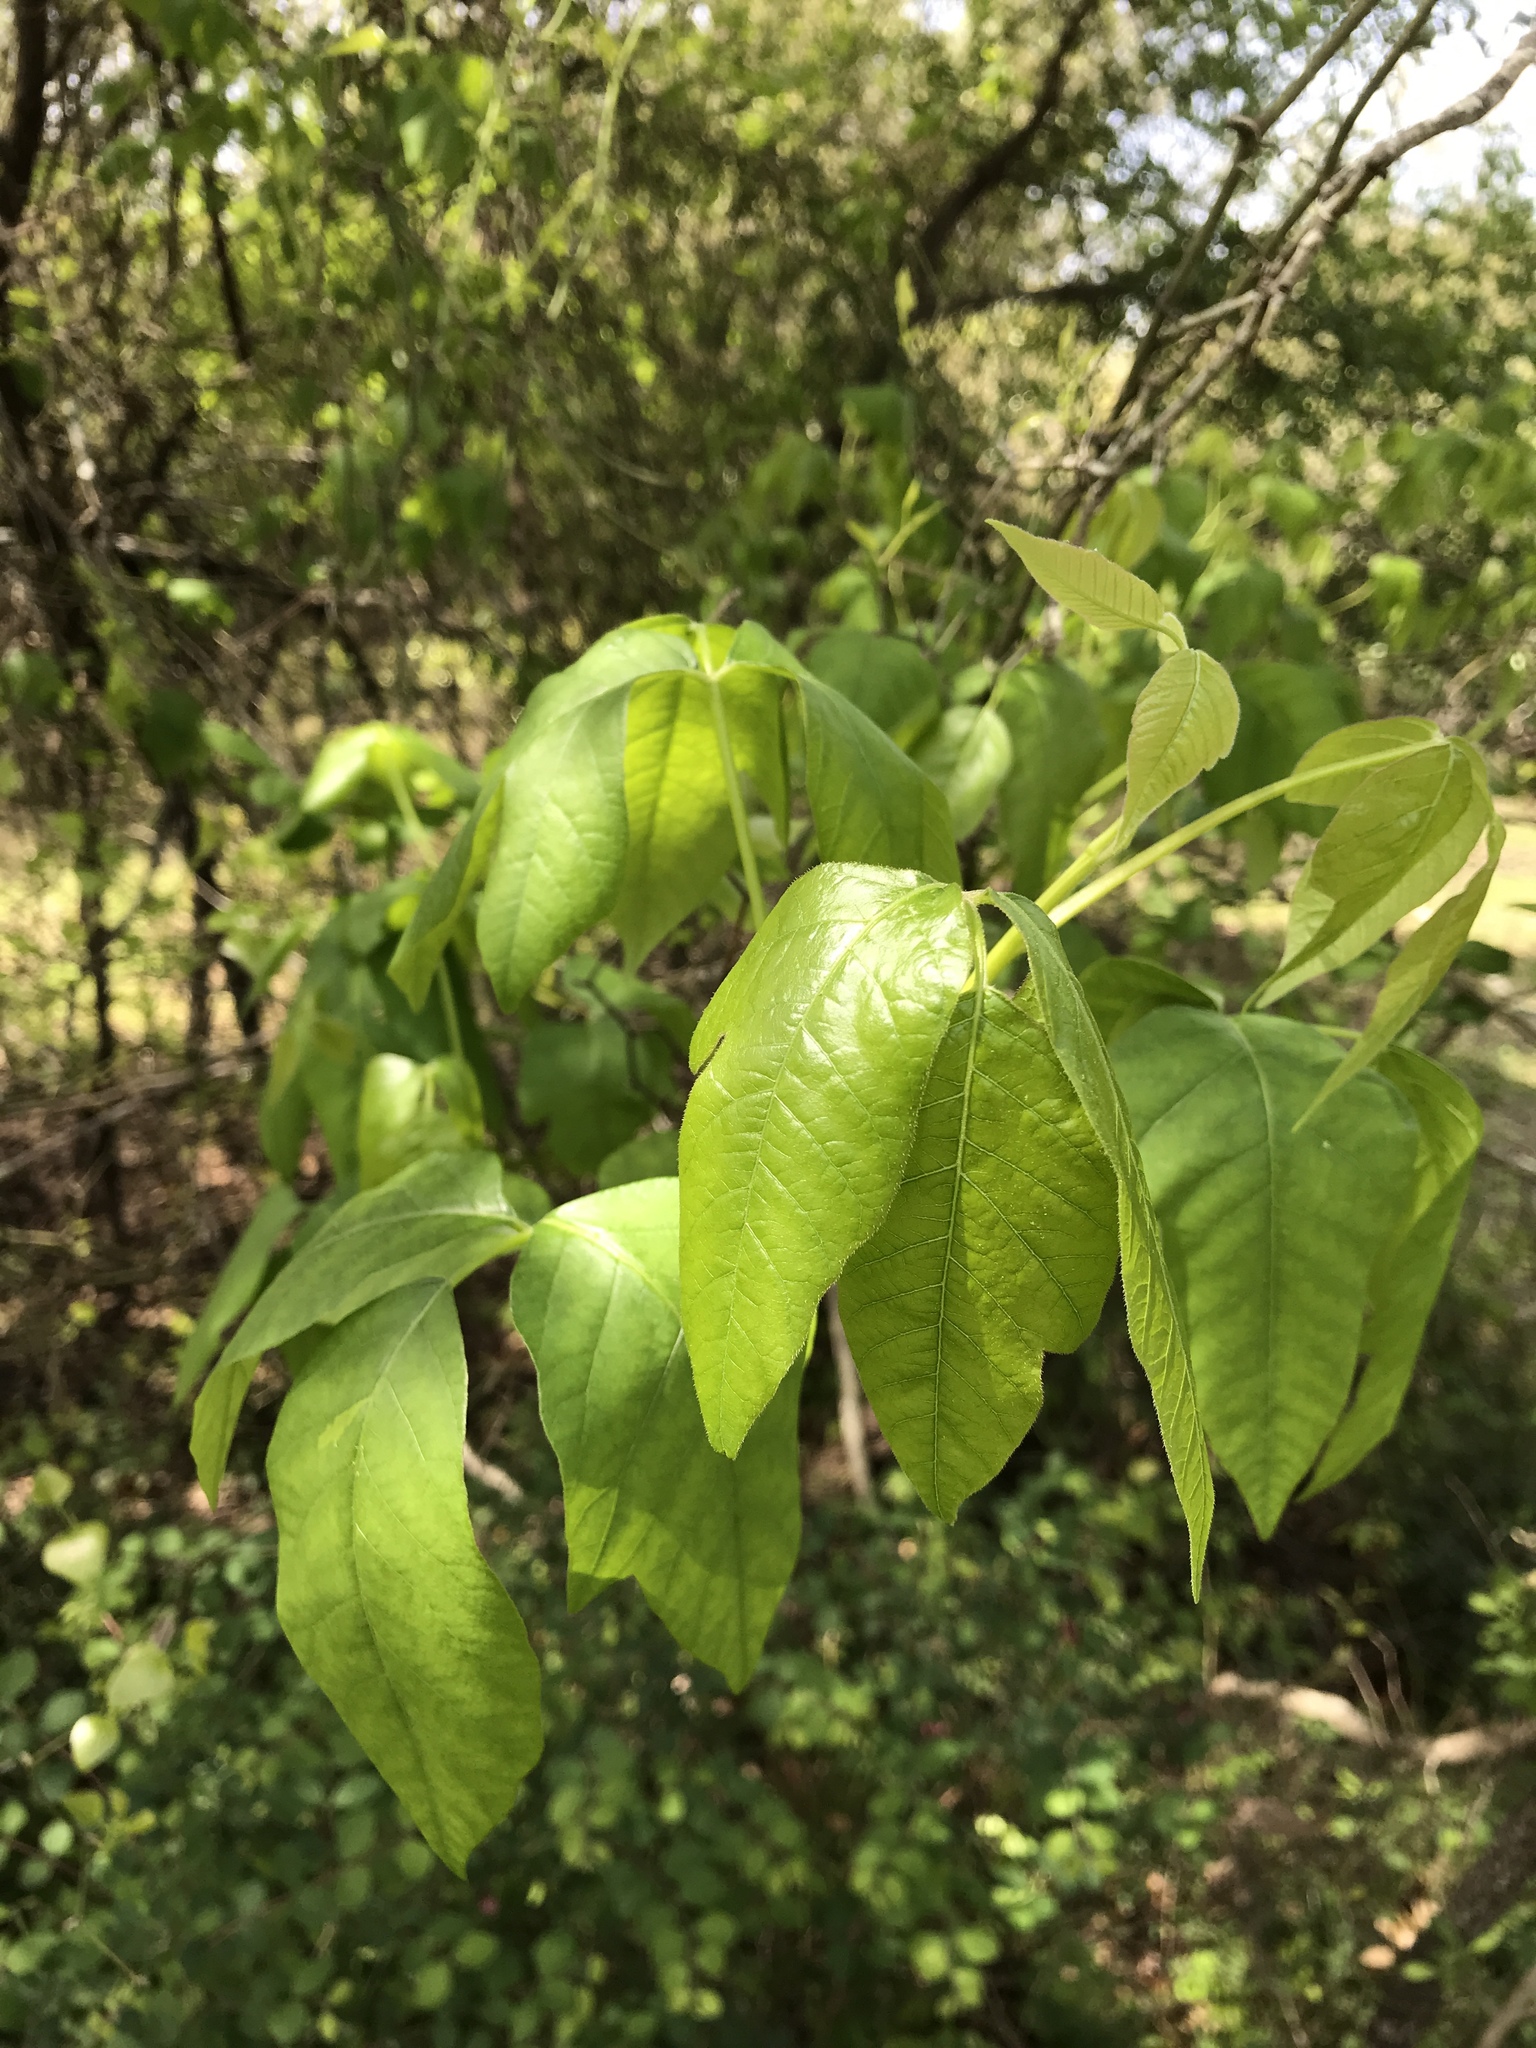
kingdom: Plantae
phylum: Tracheophyta
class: Magnoliopsida
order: Sapindales
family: Anacardiaceae
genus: Toxicodendron
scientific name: Toxicodendron radicans
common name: Poison ivy
